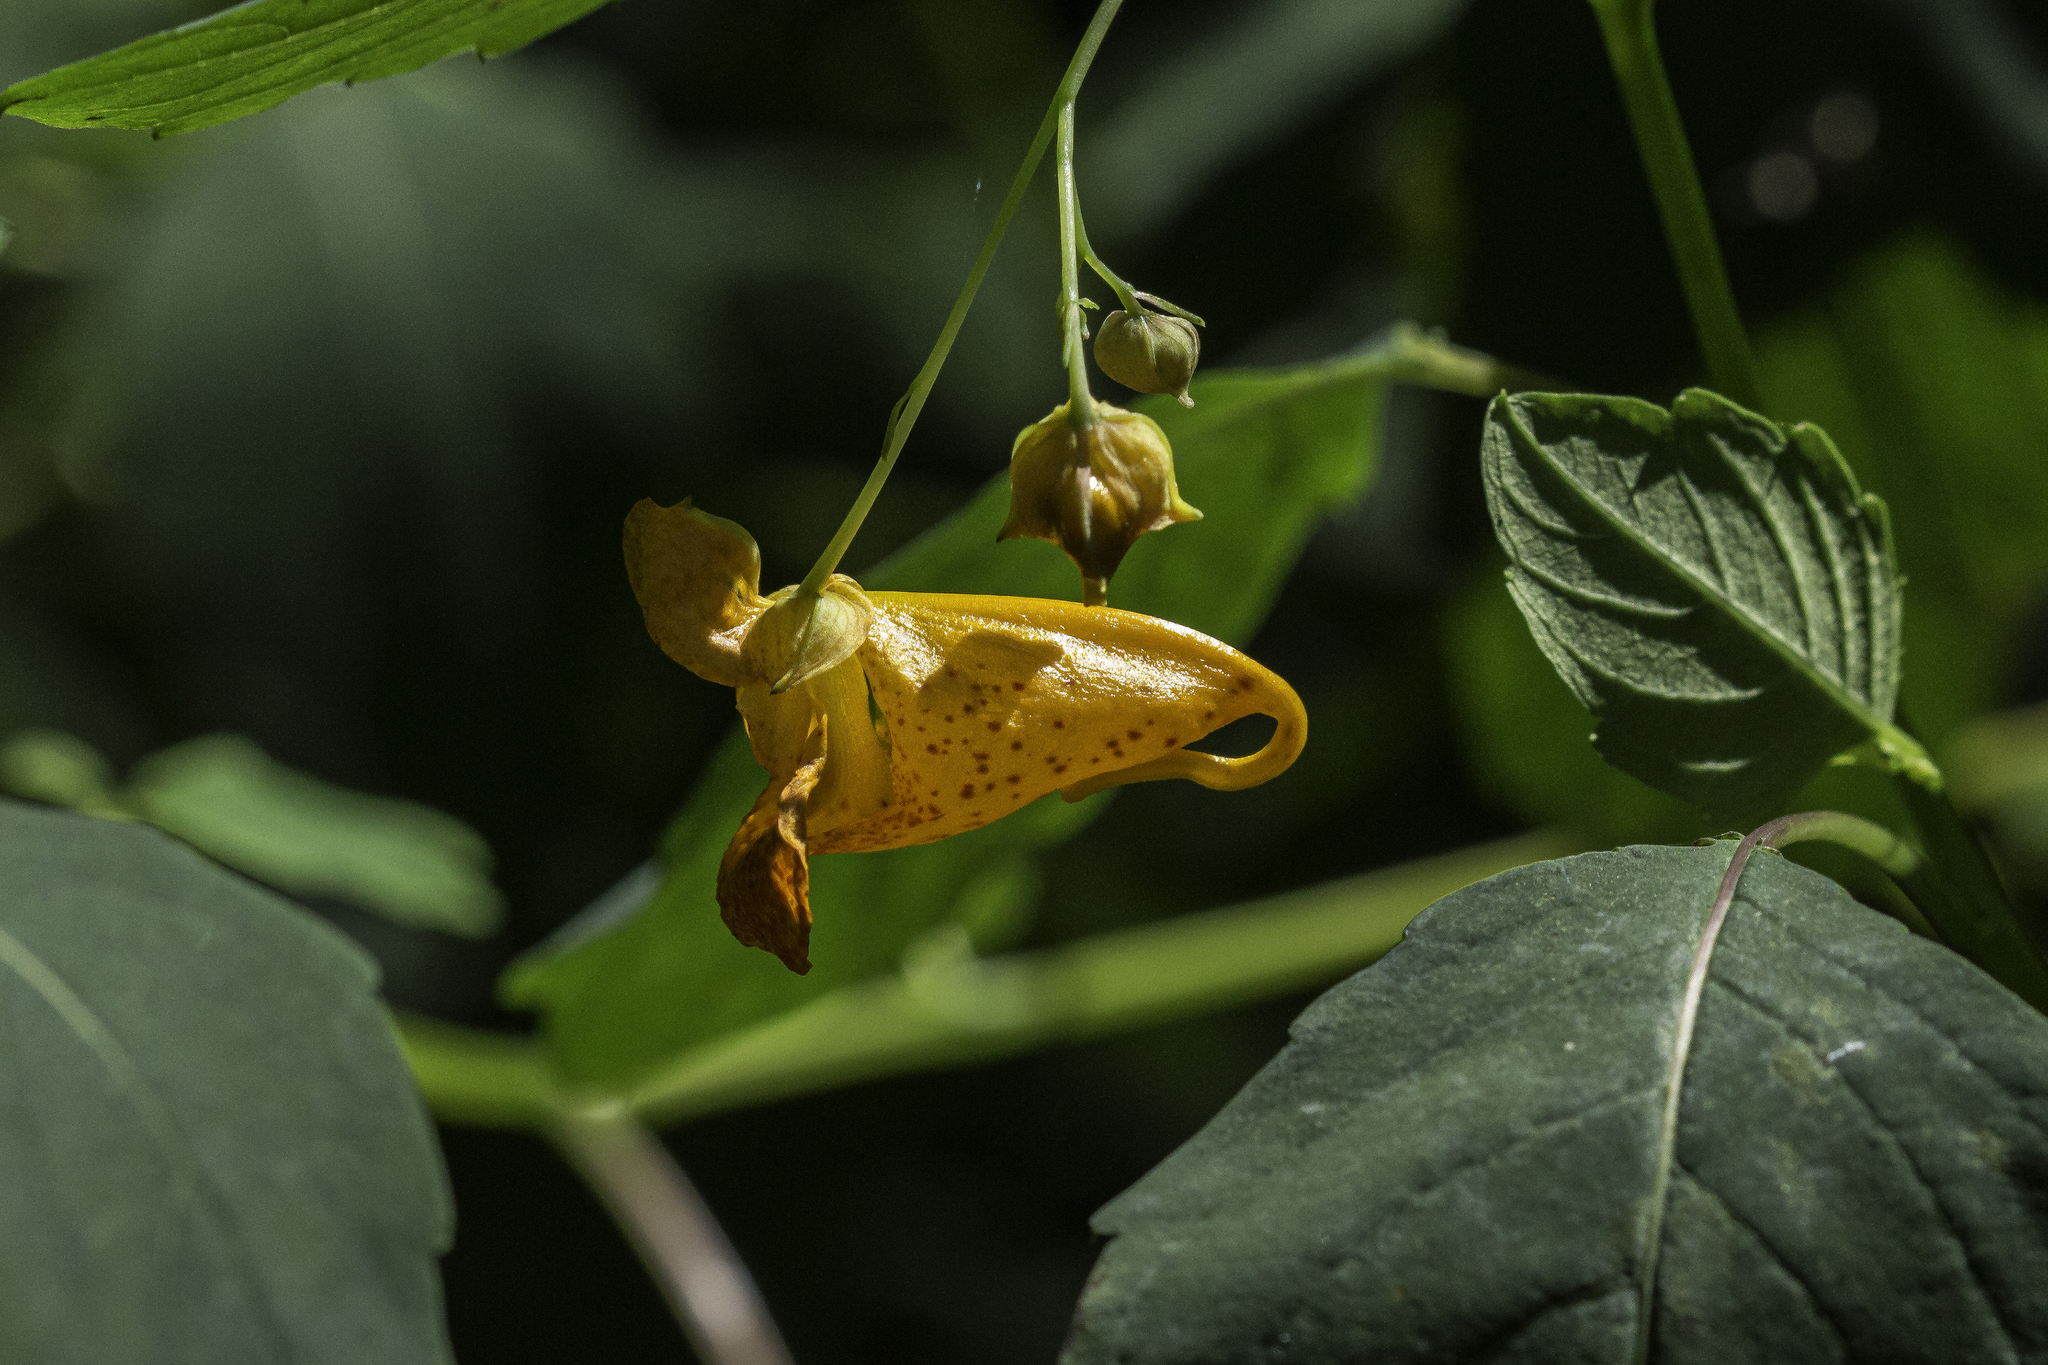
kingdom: Plantae
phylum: Tracheophyta
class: Magnoliopsida
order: Ericales
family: Balsaminaceae
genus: Impatiens
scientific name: Impatiens capensis
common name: Orange balsam
